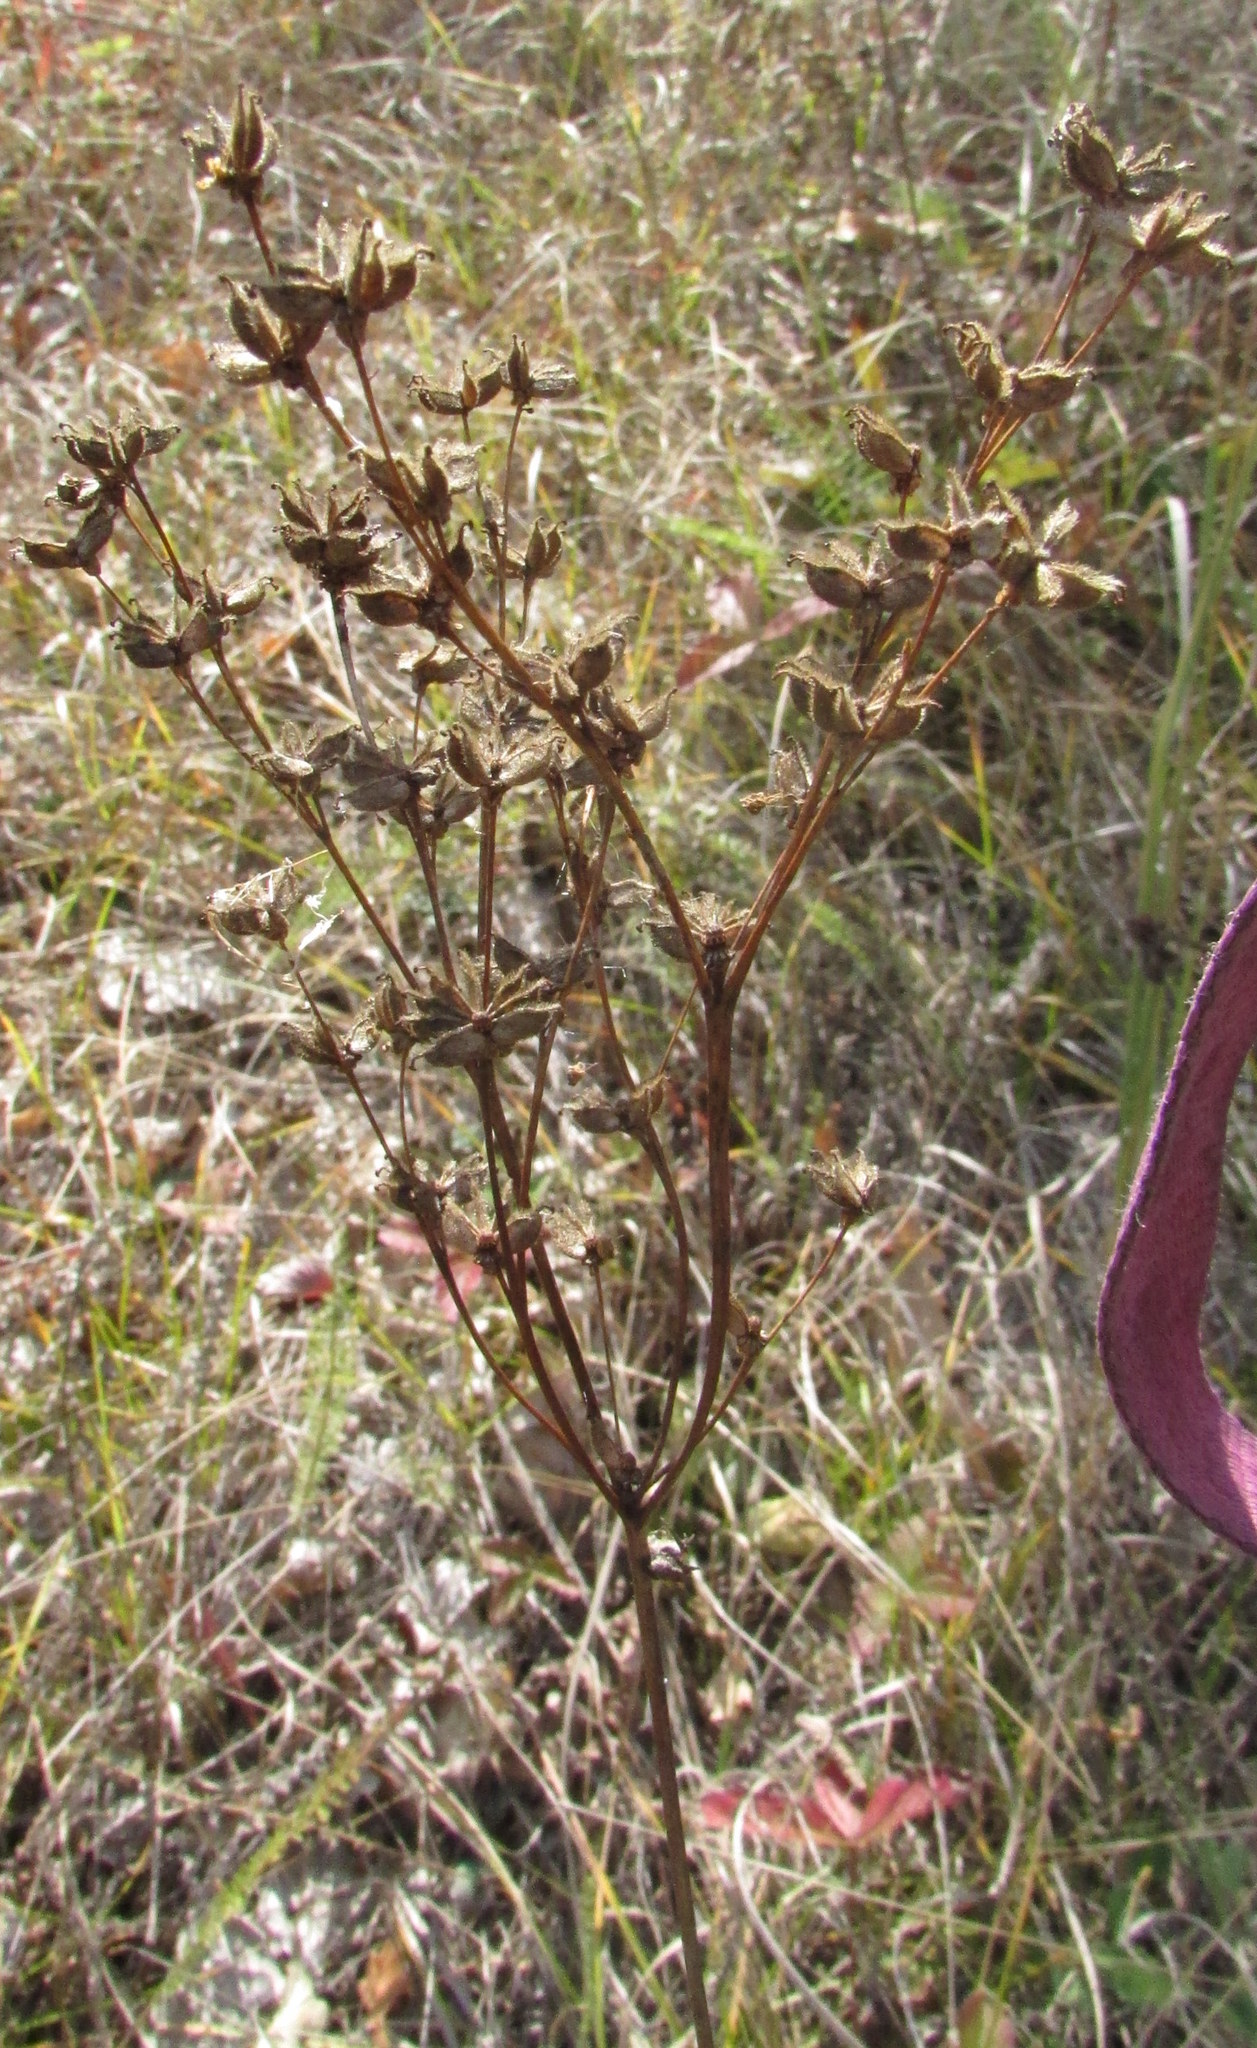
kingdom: Plantae
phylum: Tracheophyta
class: Magnoliopsida
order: Rosales
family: Rosaceae
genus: Filipendula
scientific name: Filipendula vulgaris
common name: Dropwort
